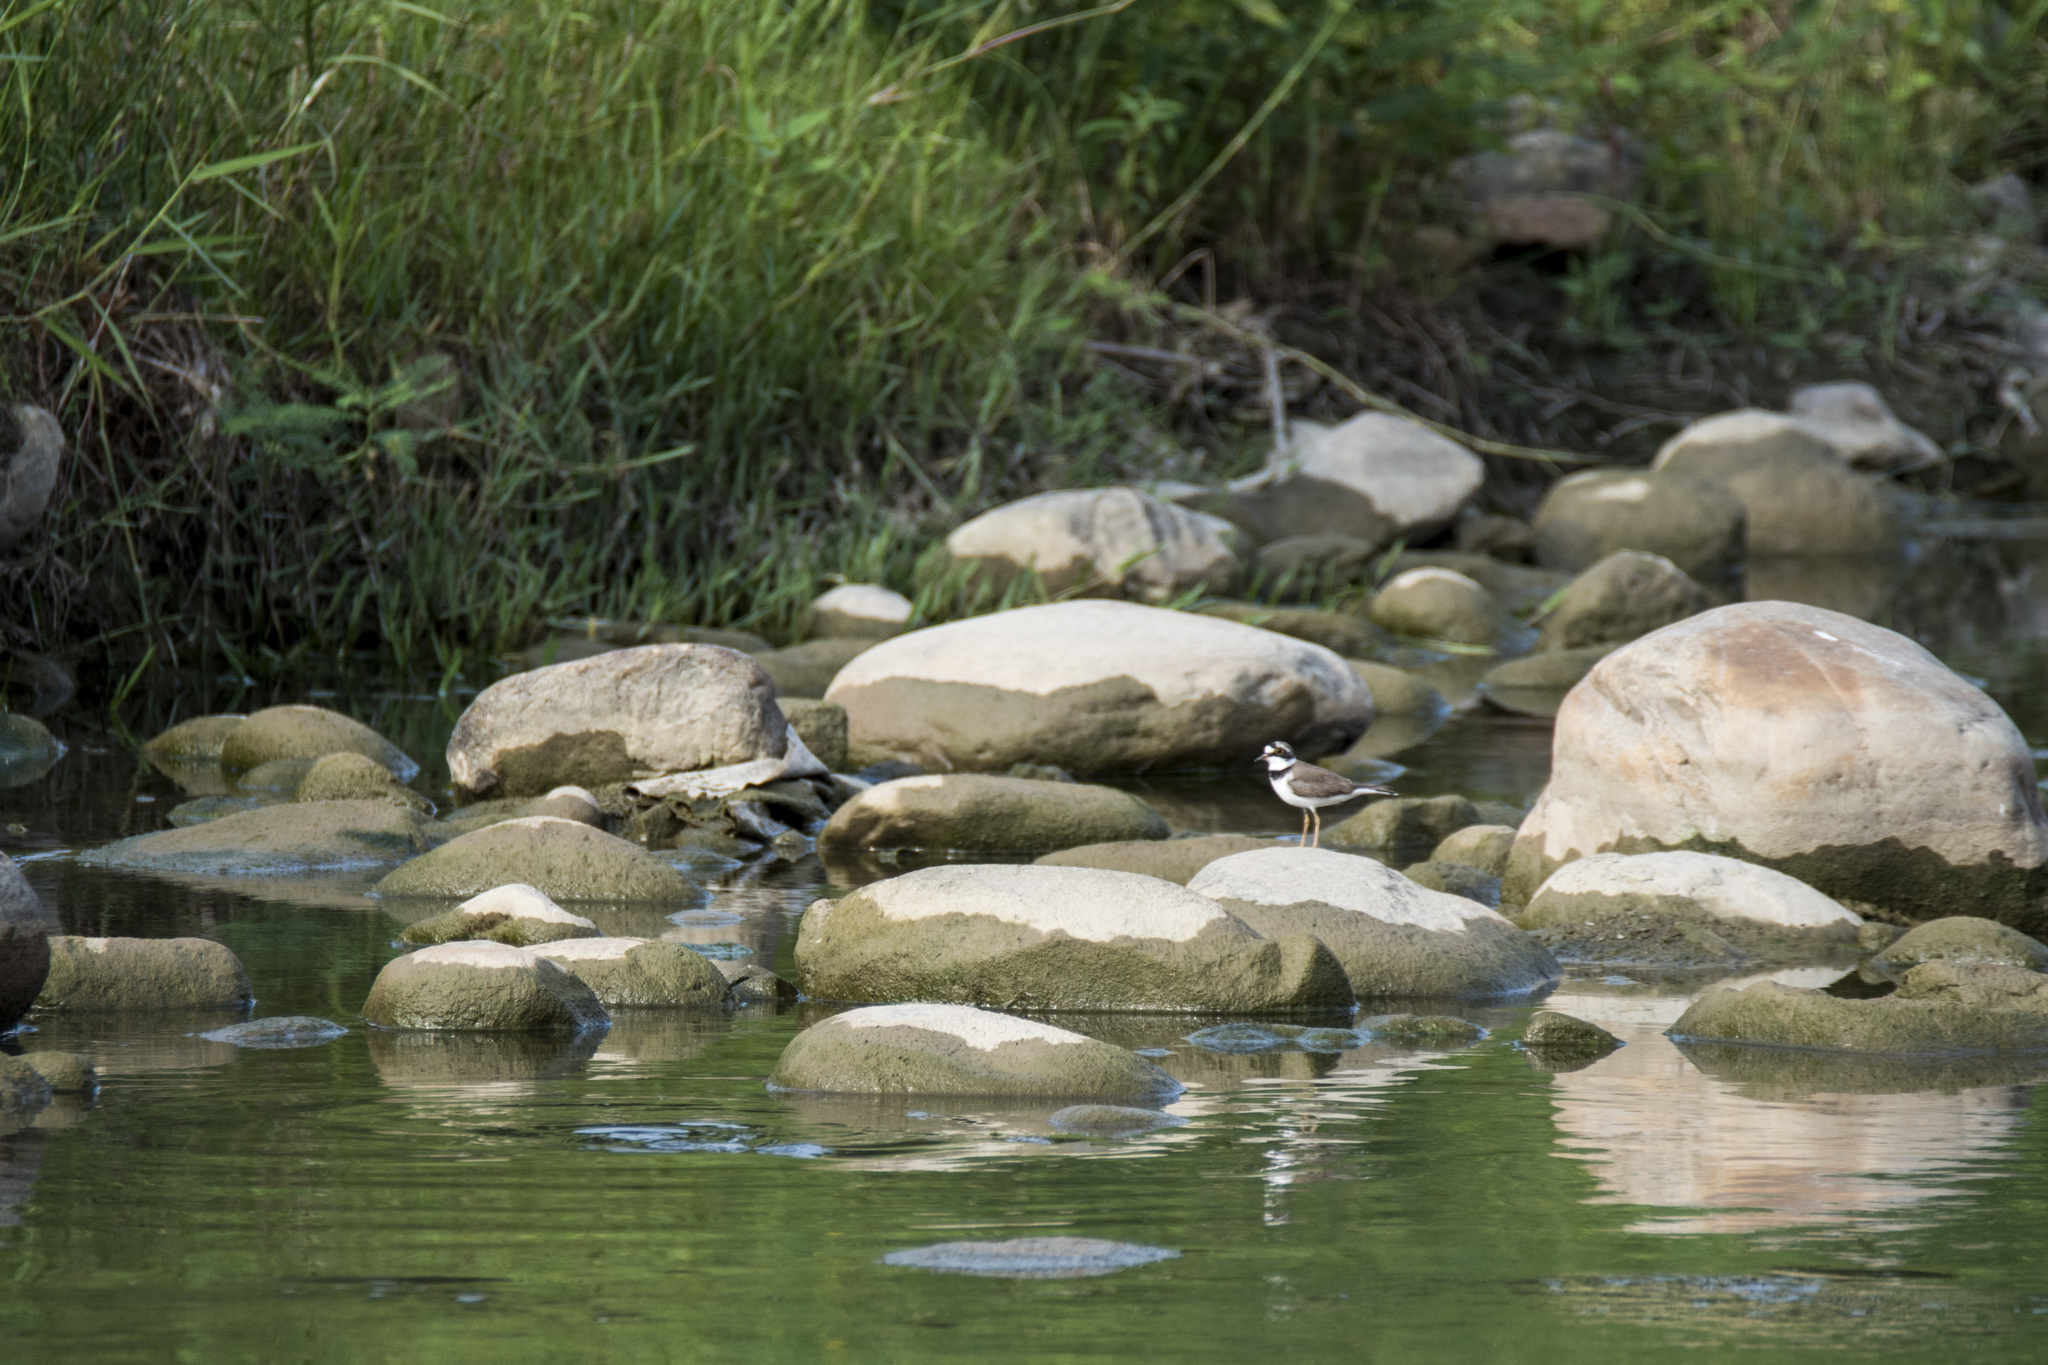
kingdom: Animalia
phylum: Chordata
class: Aves
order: Charadriiformes
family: Charadriidae
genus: Charadrius
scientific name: Charadrius dubius
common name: Little ringed plover
